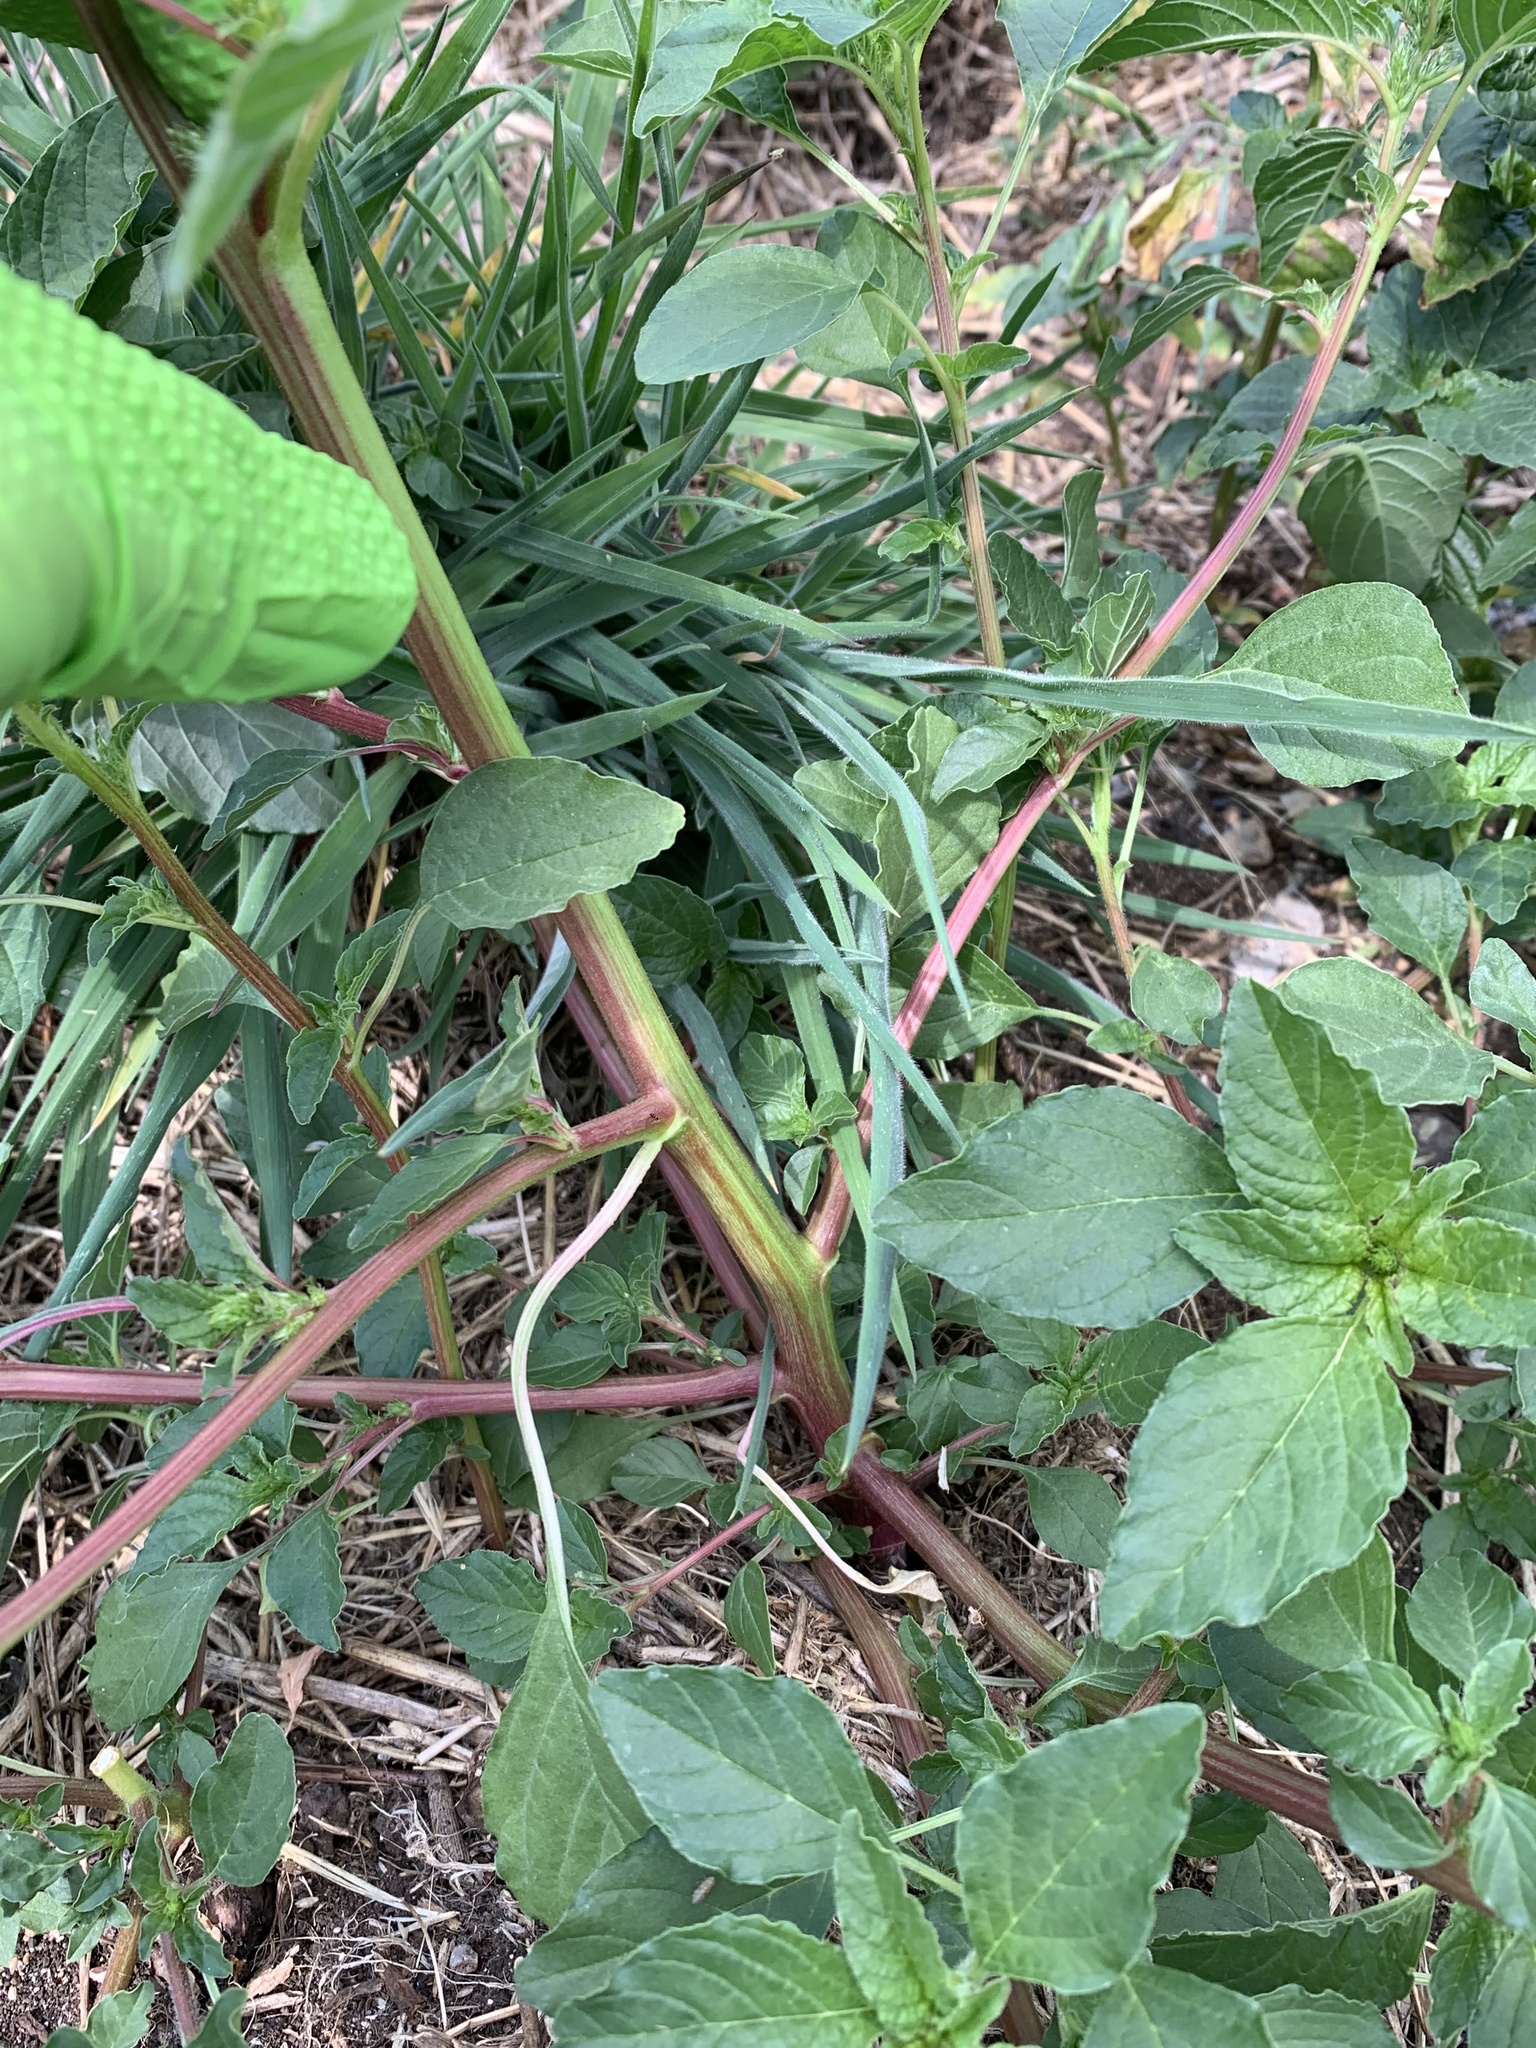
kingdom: Plantae
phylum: Tracheophyta
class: Magnoliopsida
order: Caryophyllales
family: Amaranthaceae
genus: Amaranthus
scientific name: Amaranthus powellii
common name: Powell's amaranth
